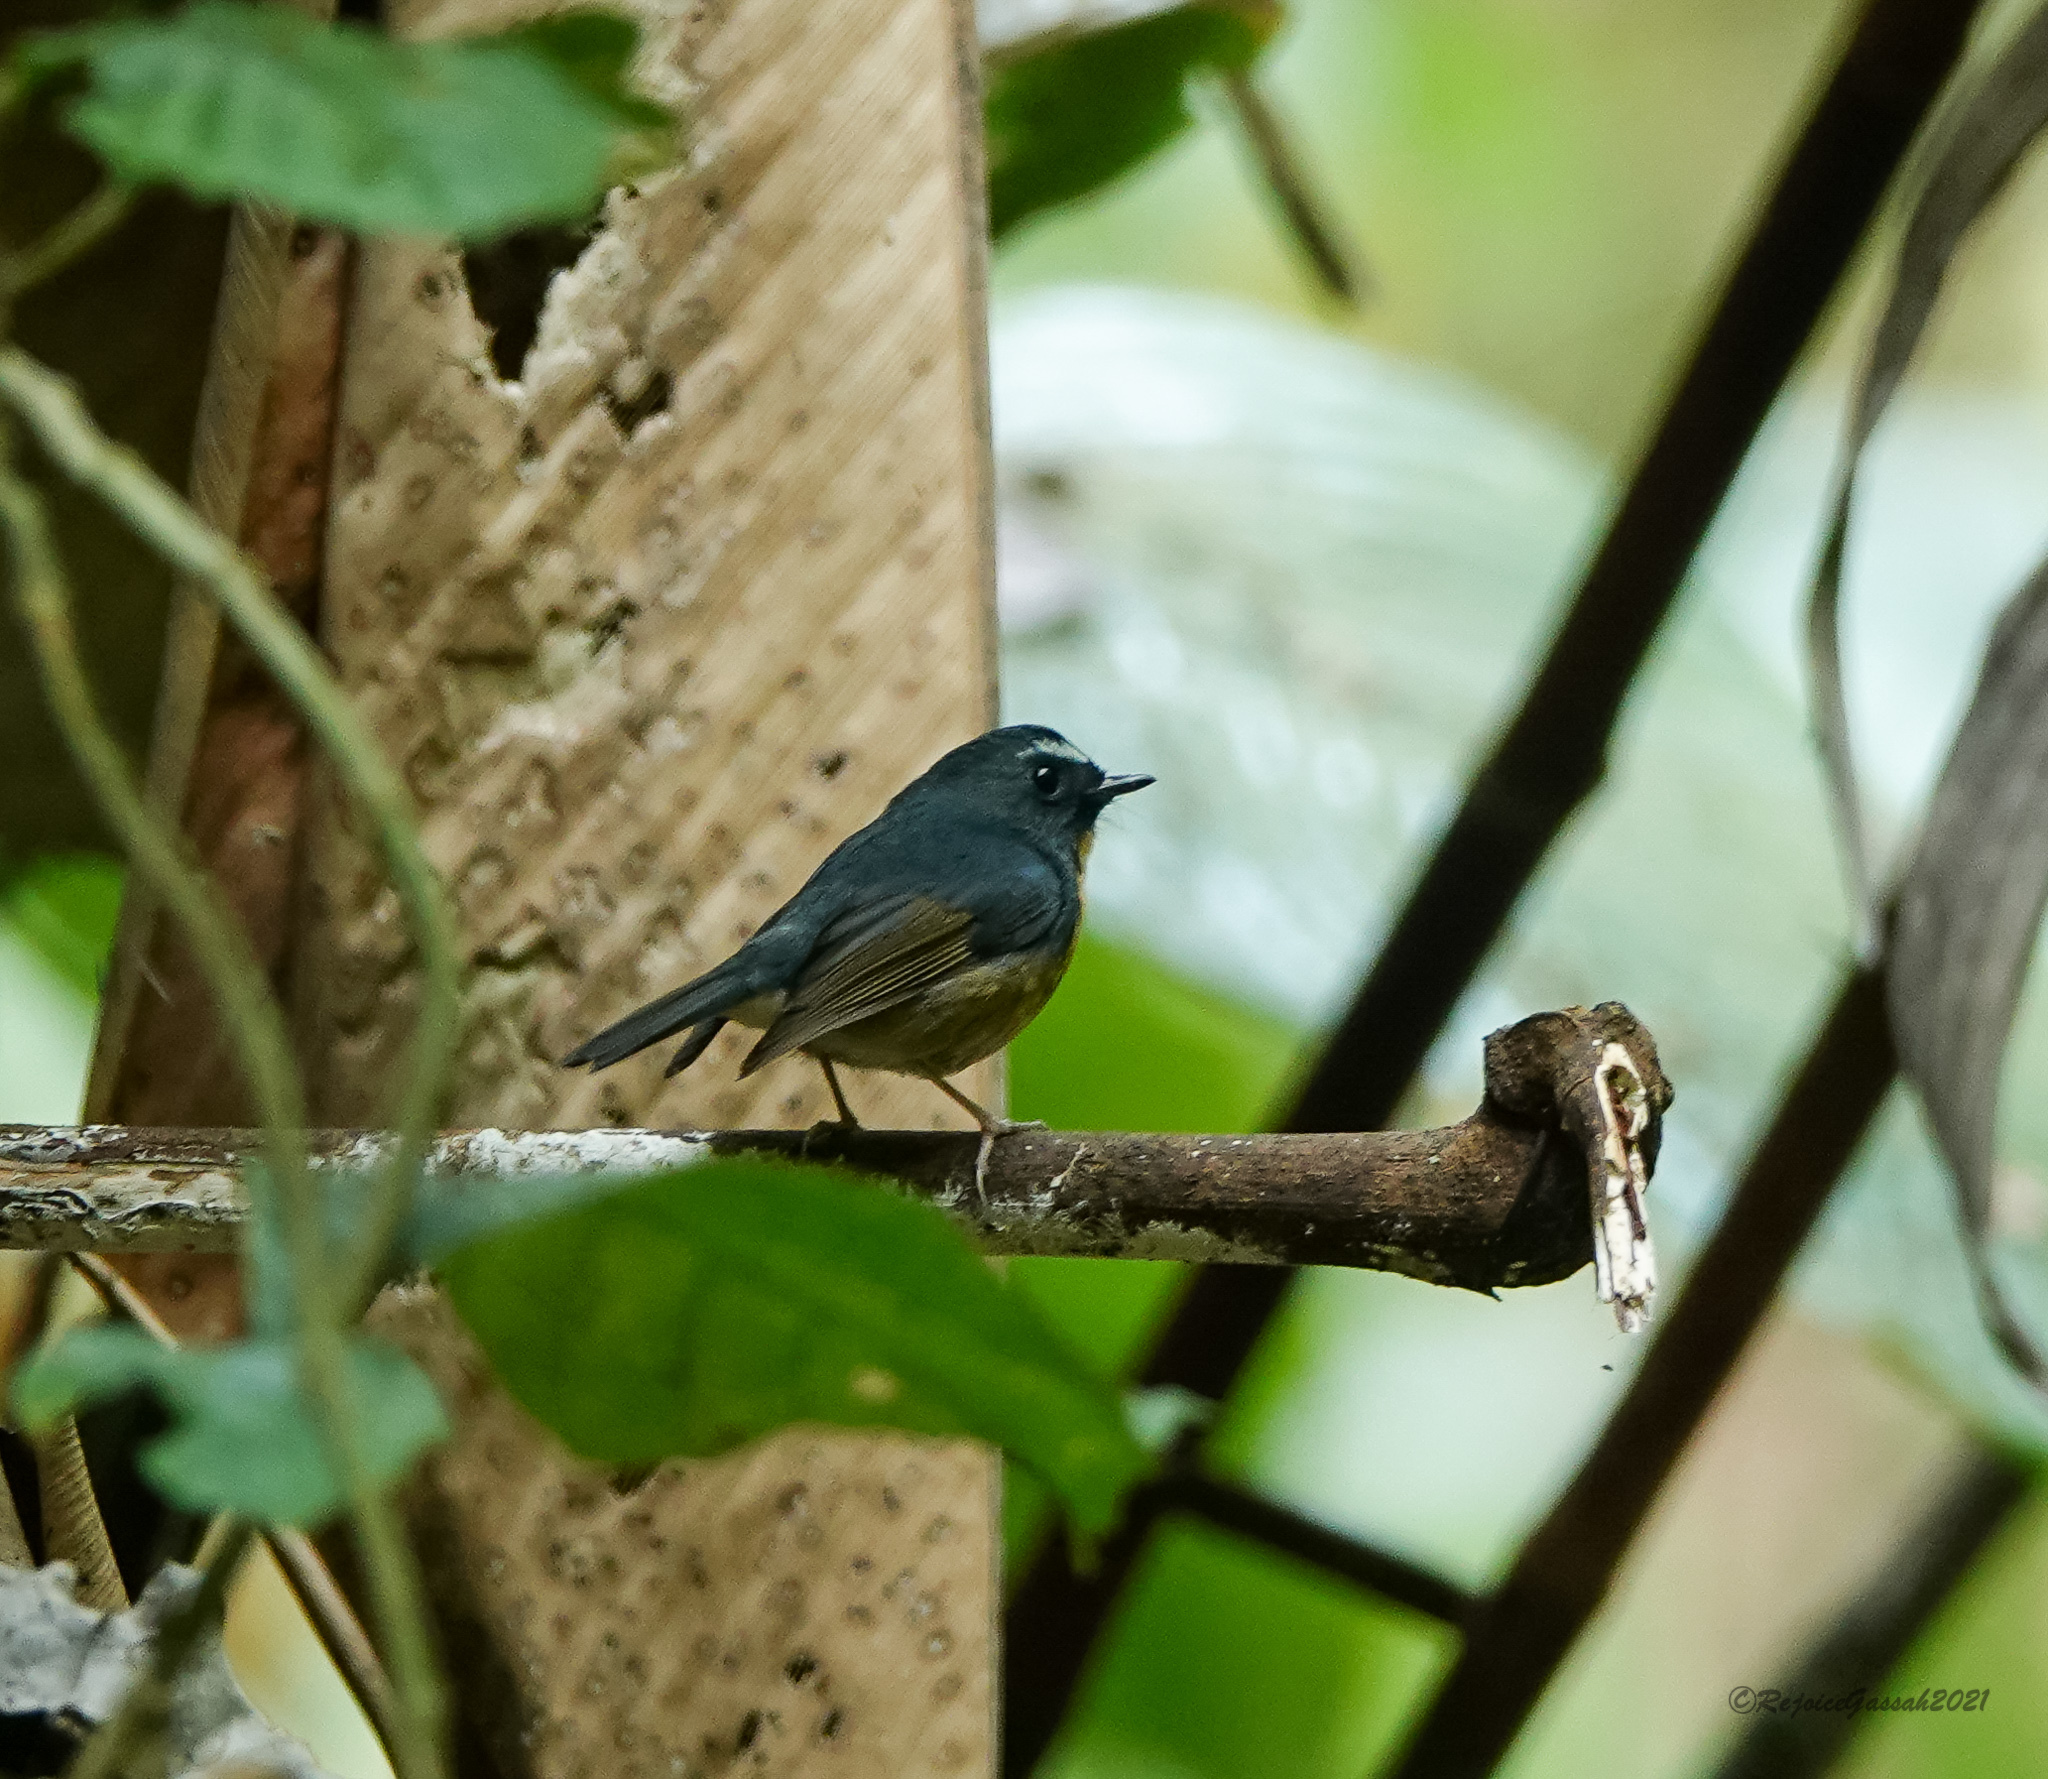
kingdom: Animalia
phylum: Chordata
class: Aves
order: Passeriformes
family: Muscicapidae
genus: Ficedula
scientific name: Ficedula hyperythra
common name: Snowy-browed flycatcher
